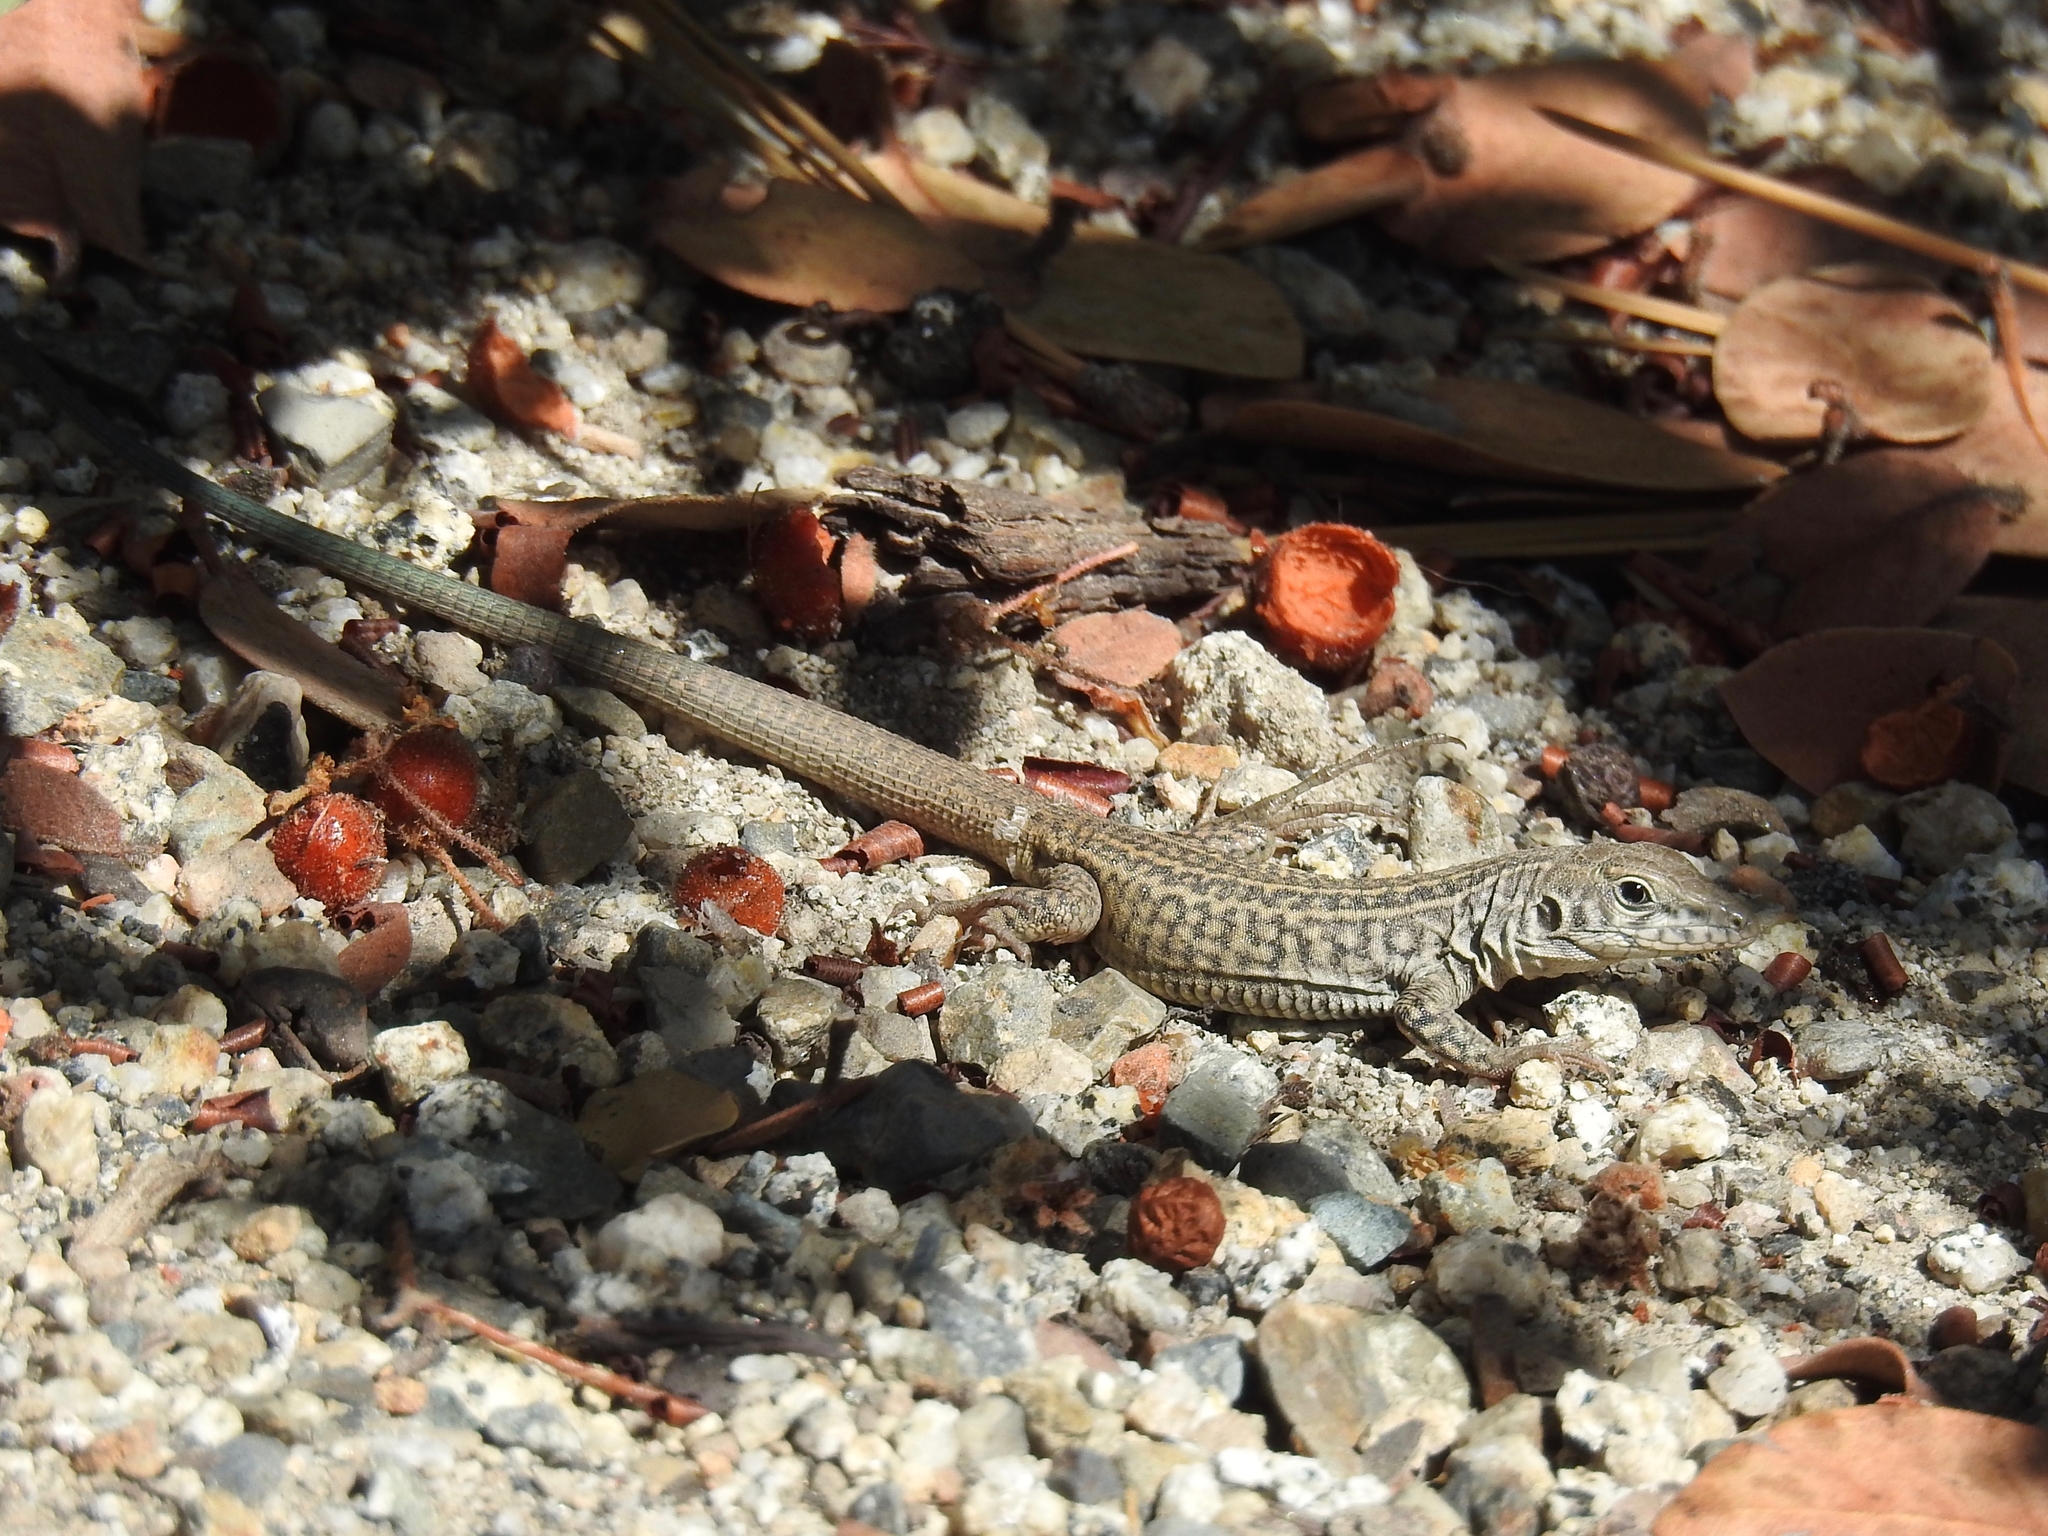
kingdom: Animalia
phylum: Chordata
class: Squamata
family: Teiidae
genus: Aspidoscelis
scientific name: Aspidoscelis tigris
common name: Tiger whiptail
